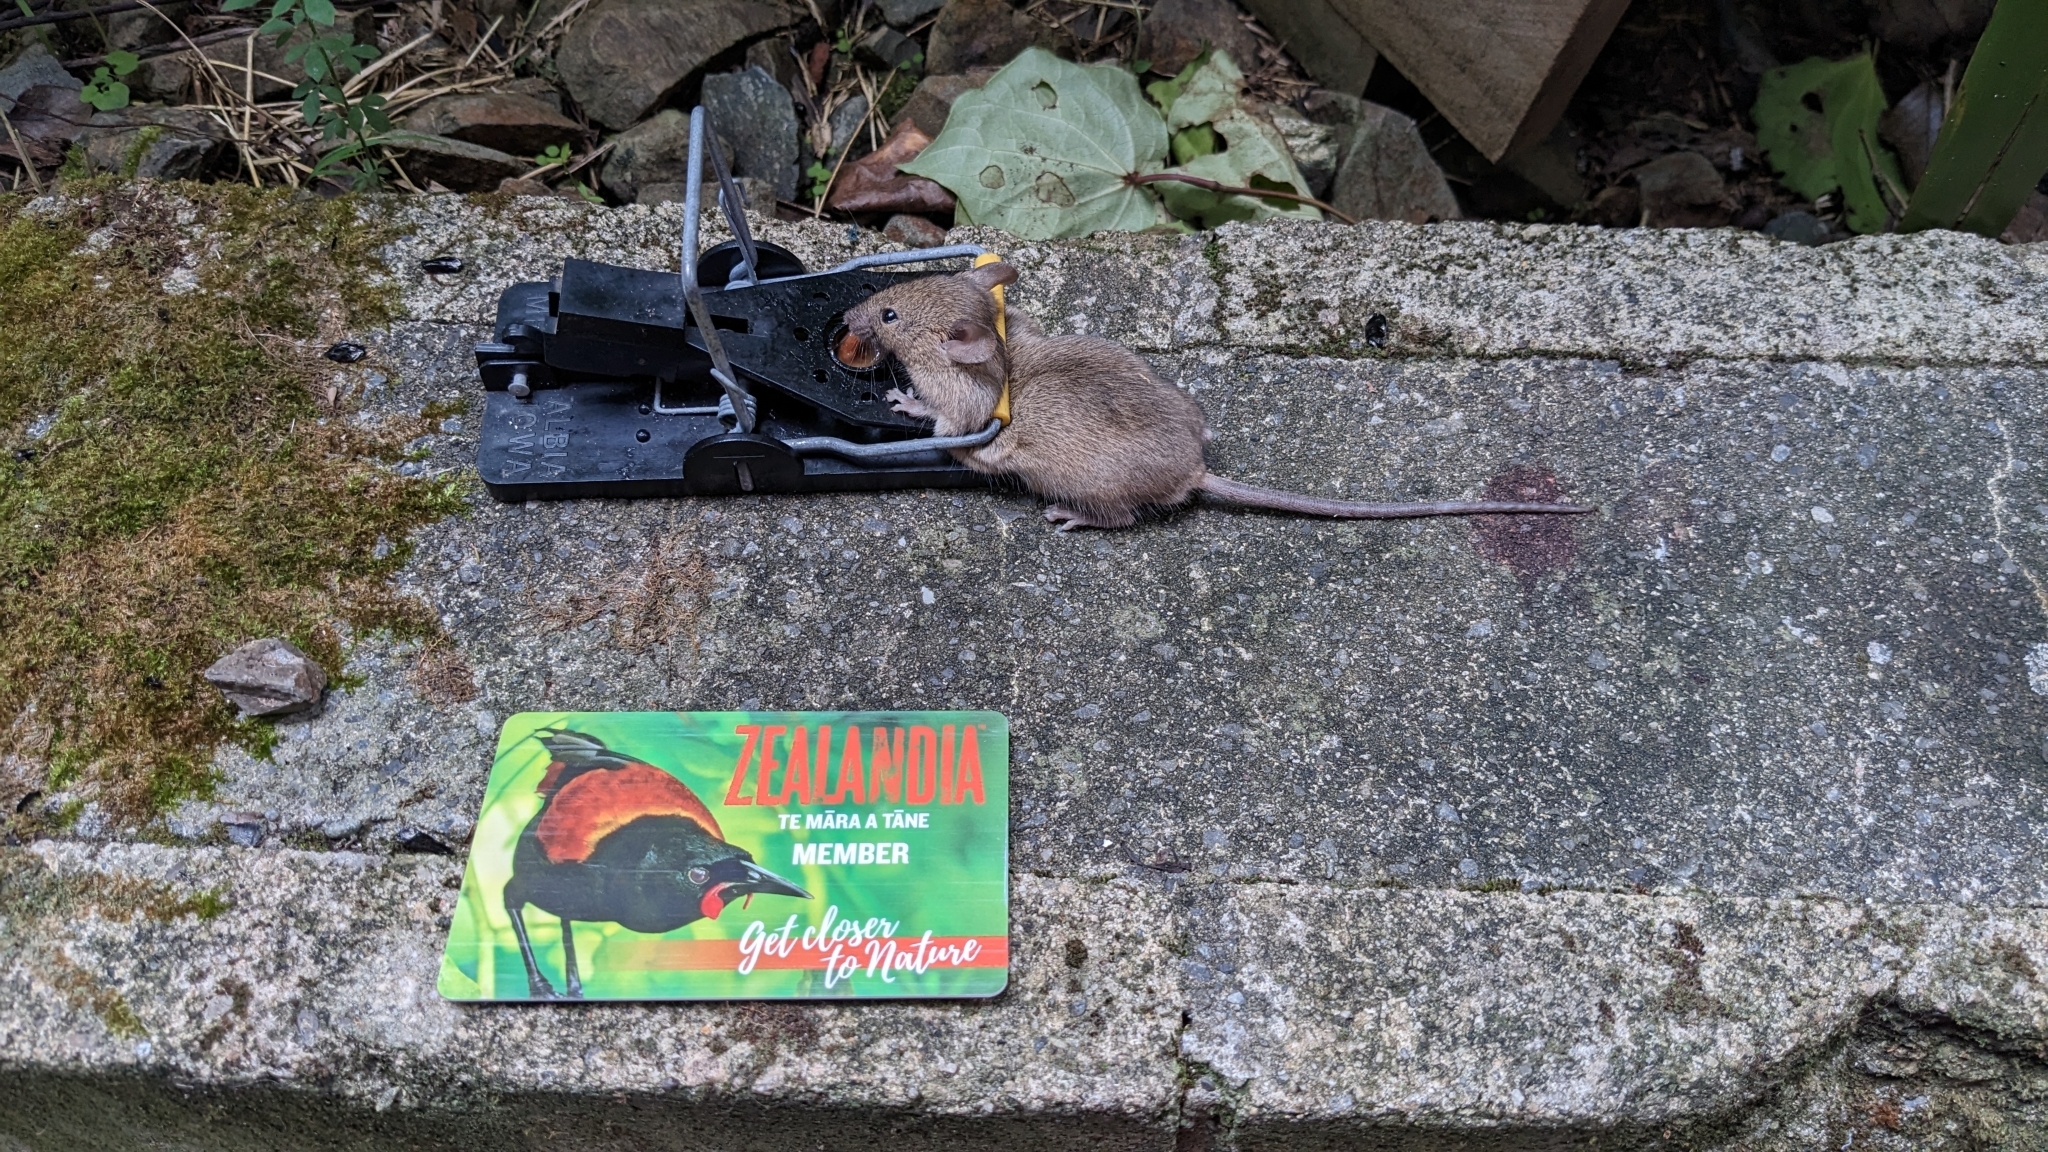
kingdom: Animalia
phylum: Chordata
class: Mammalia
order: Rodentia
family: Muridae
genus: Mus
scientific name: Mus musculus
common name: House mouse
